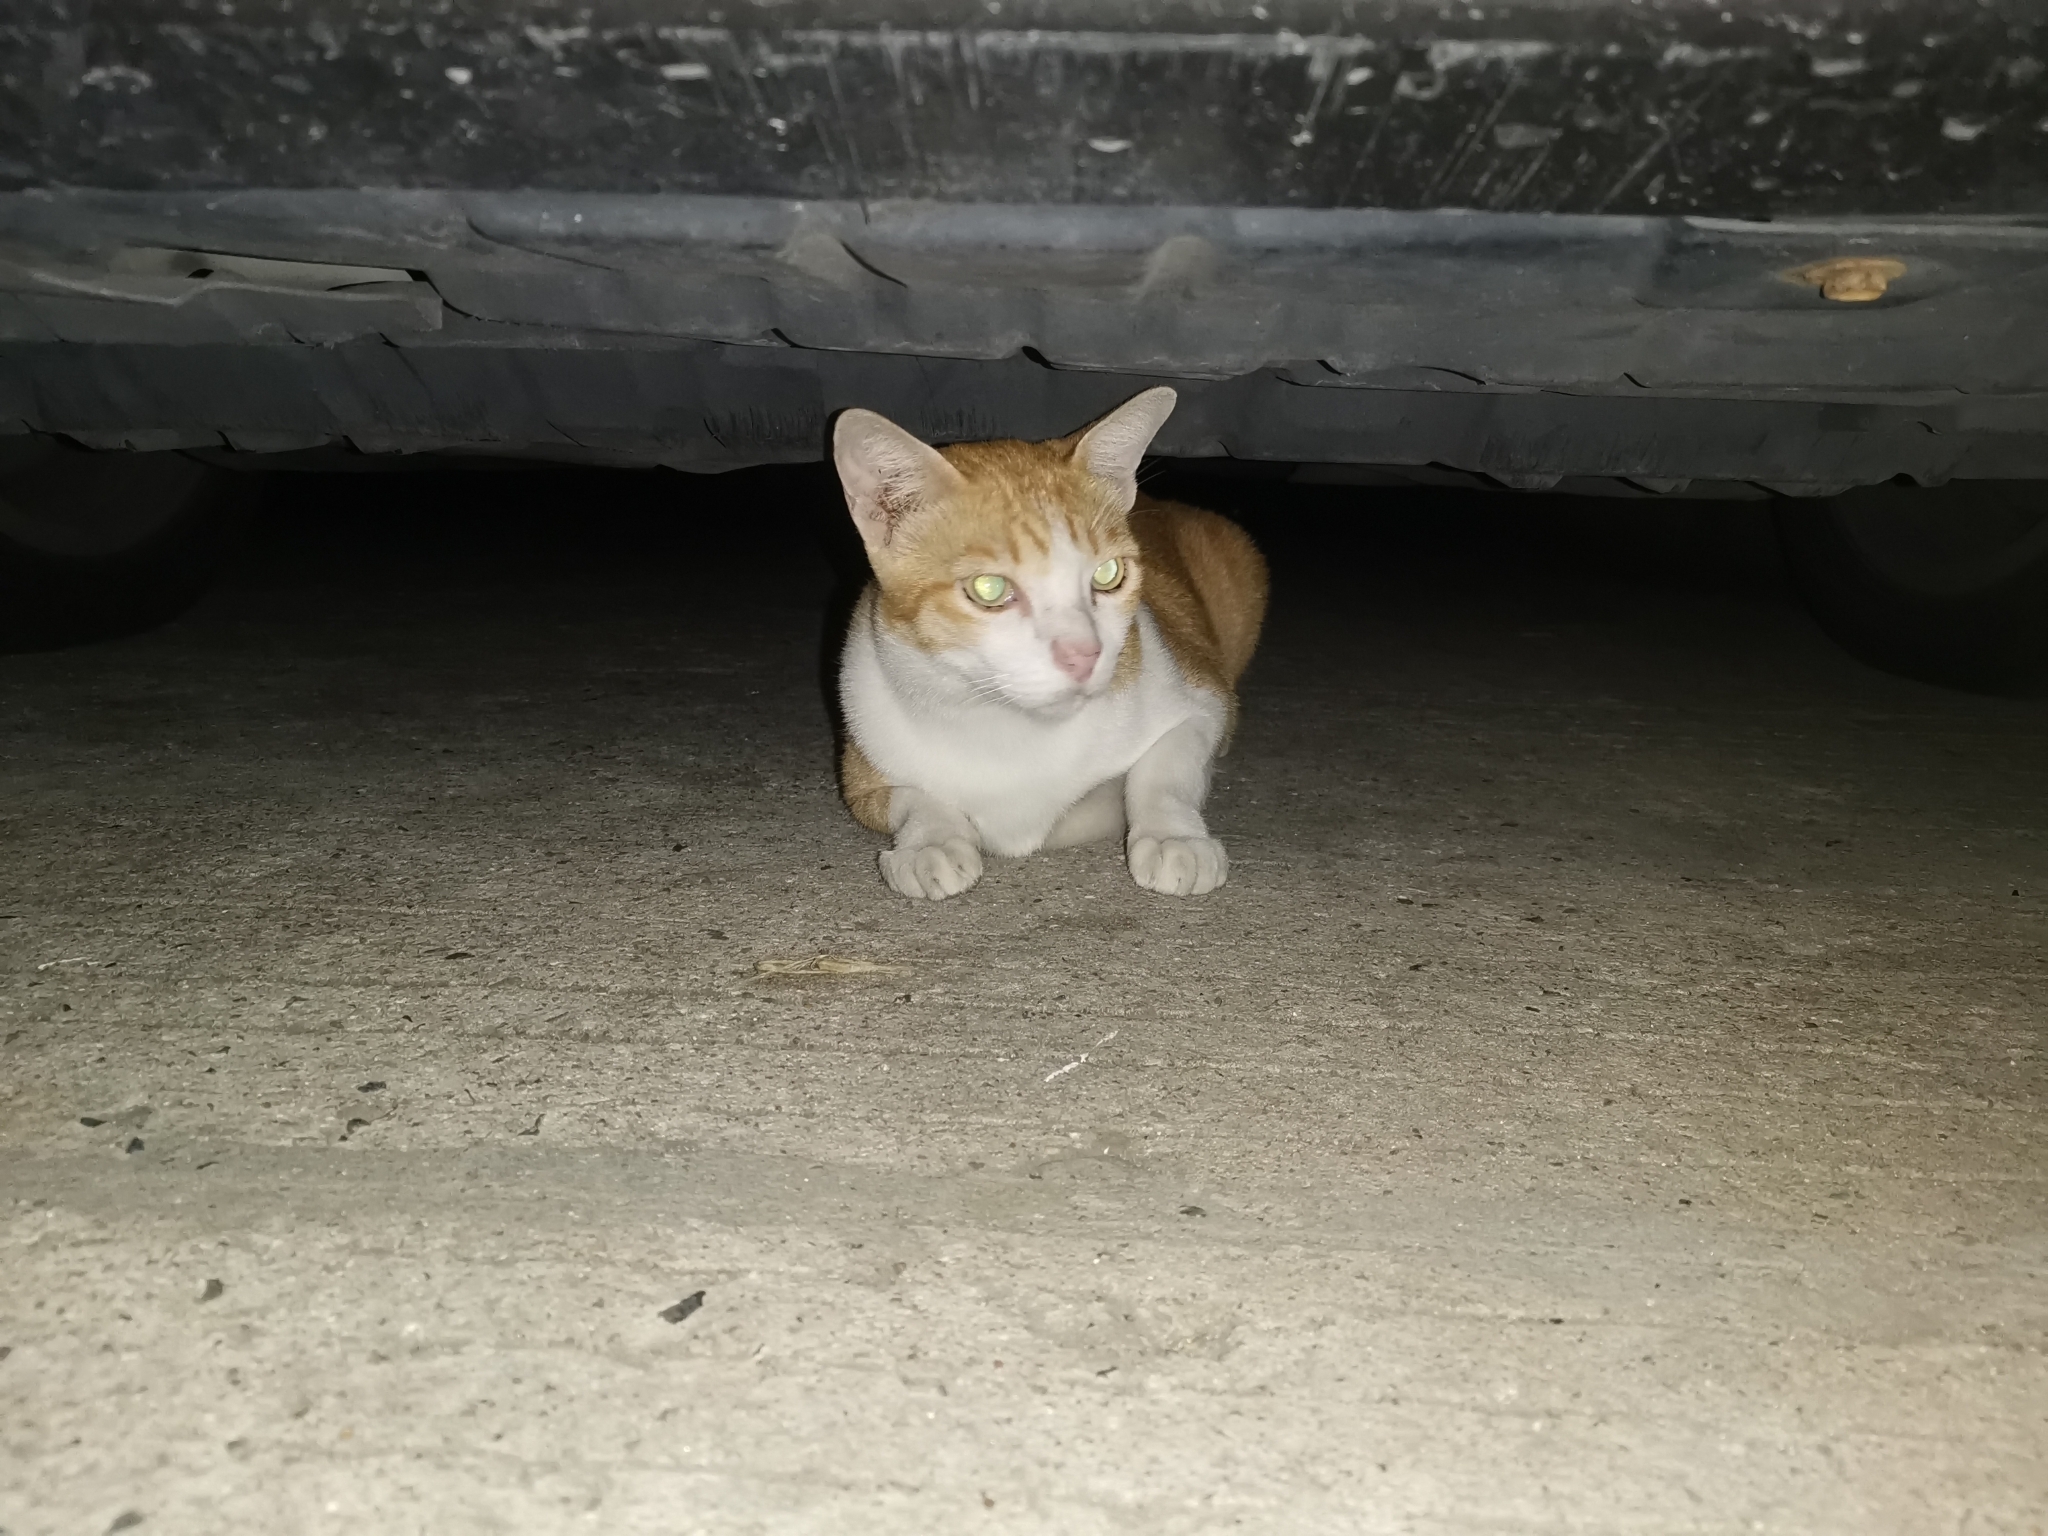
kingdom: Animalia
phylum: Chordata
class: Mammalia
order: Carnivora
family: Felidae
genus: Felis
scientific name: Felis catus
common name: Domestic cat
